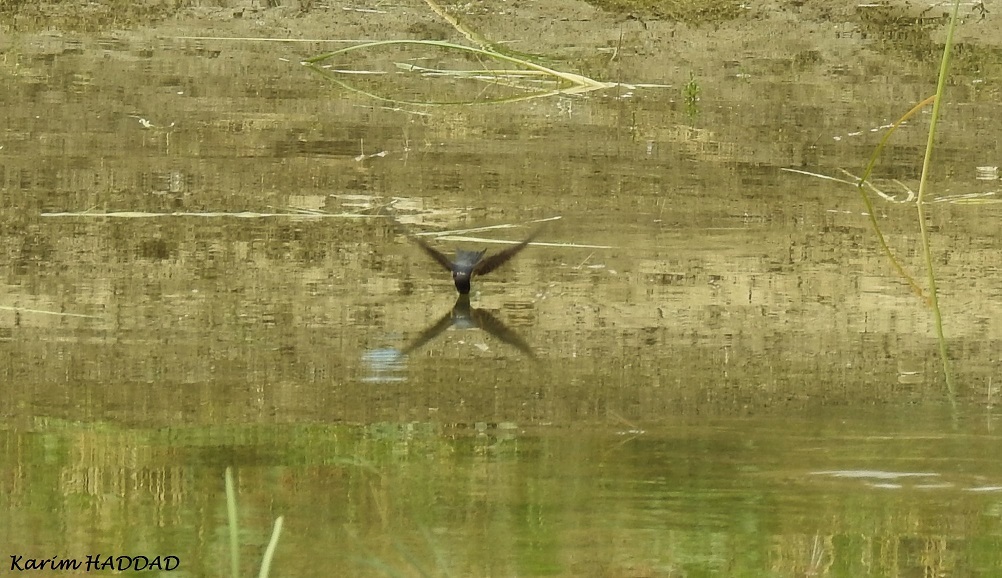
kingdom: Animalia
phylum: Chordata
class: Aves
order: Passeriformes
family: Hirundinidae
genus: Hirundo
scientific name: Hirundo rustica
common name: Barn swallow
